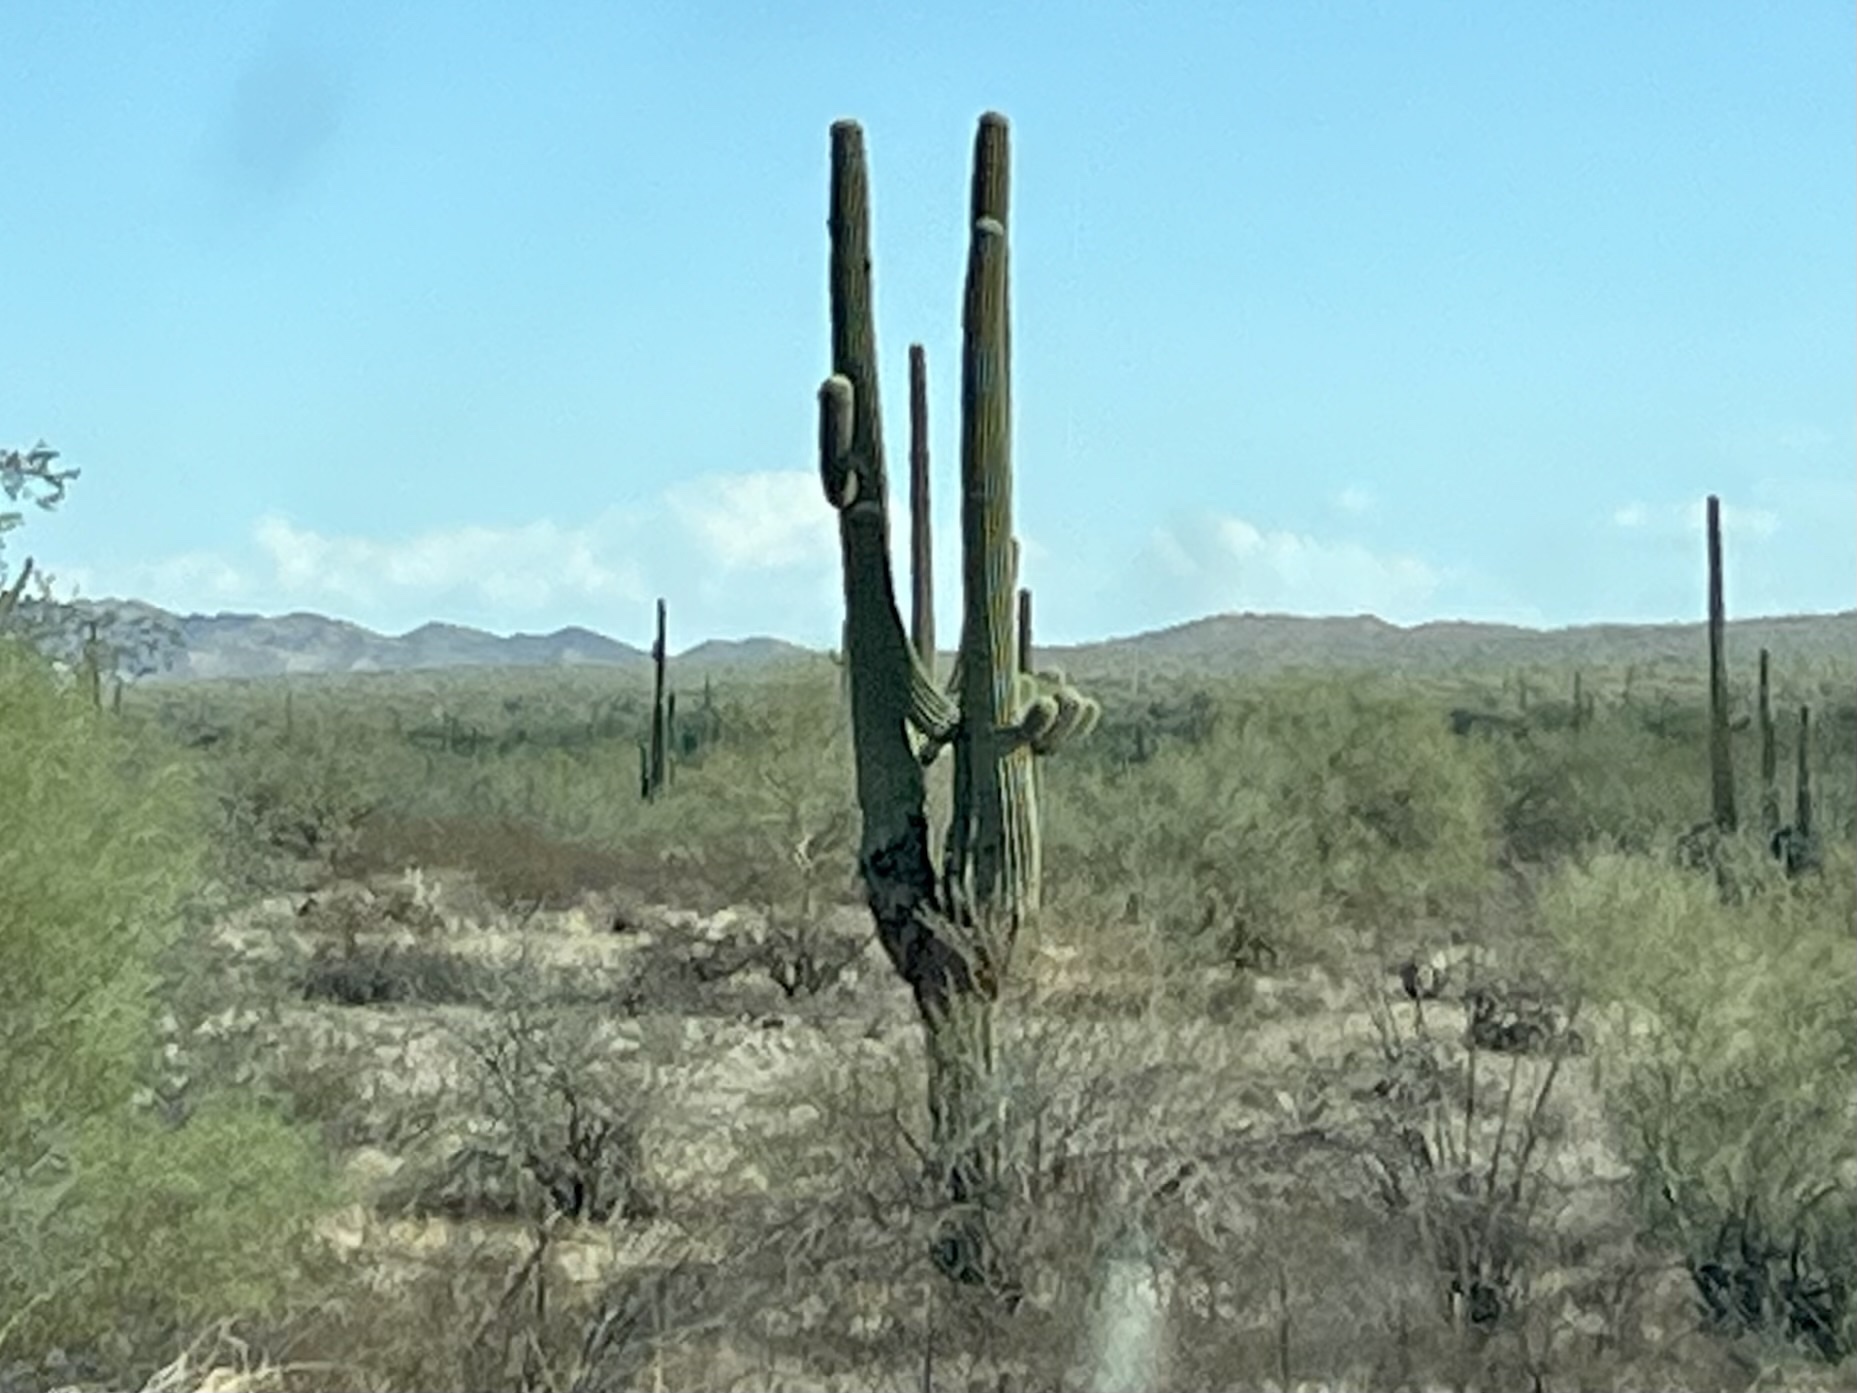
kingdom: Plantae
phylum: Tracheophyta
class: Magnoliopsida
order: Caryophyllales
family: Cactaceae
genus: Carnegiea
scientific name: Carnegiea gigantea
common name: Saguaro
